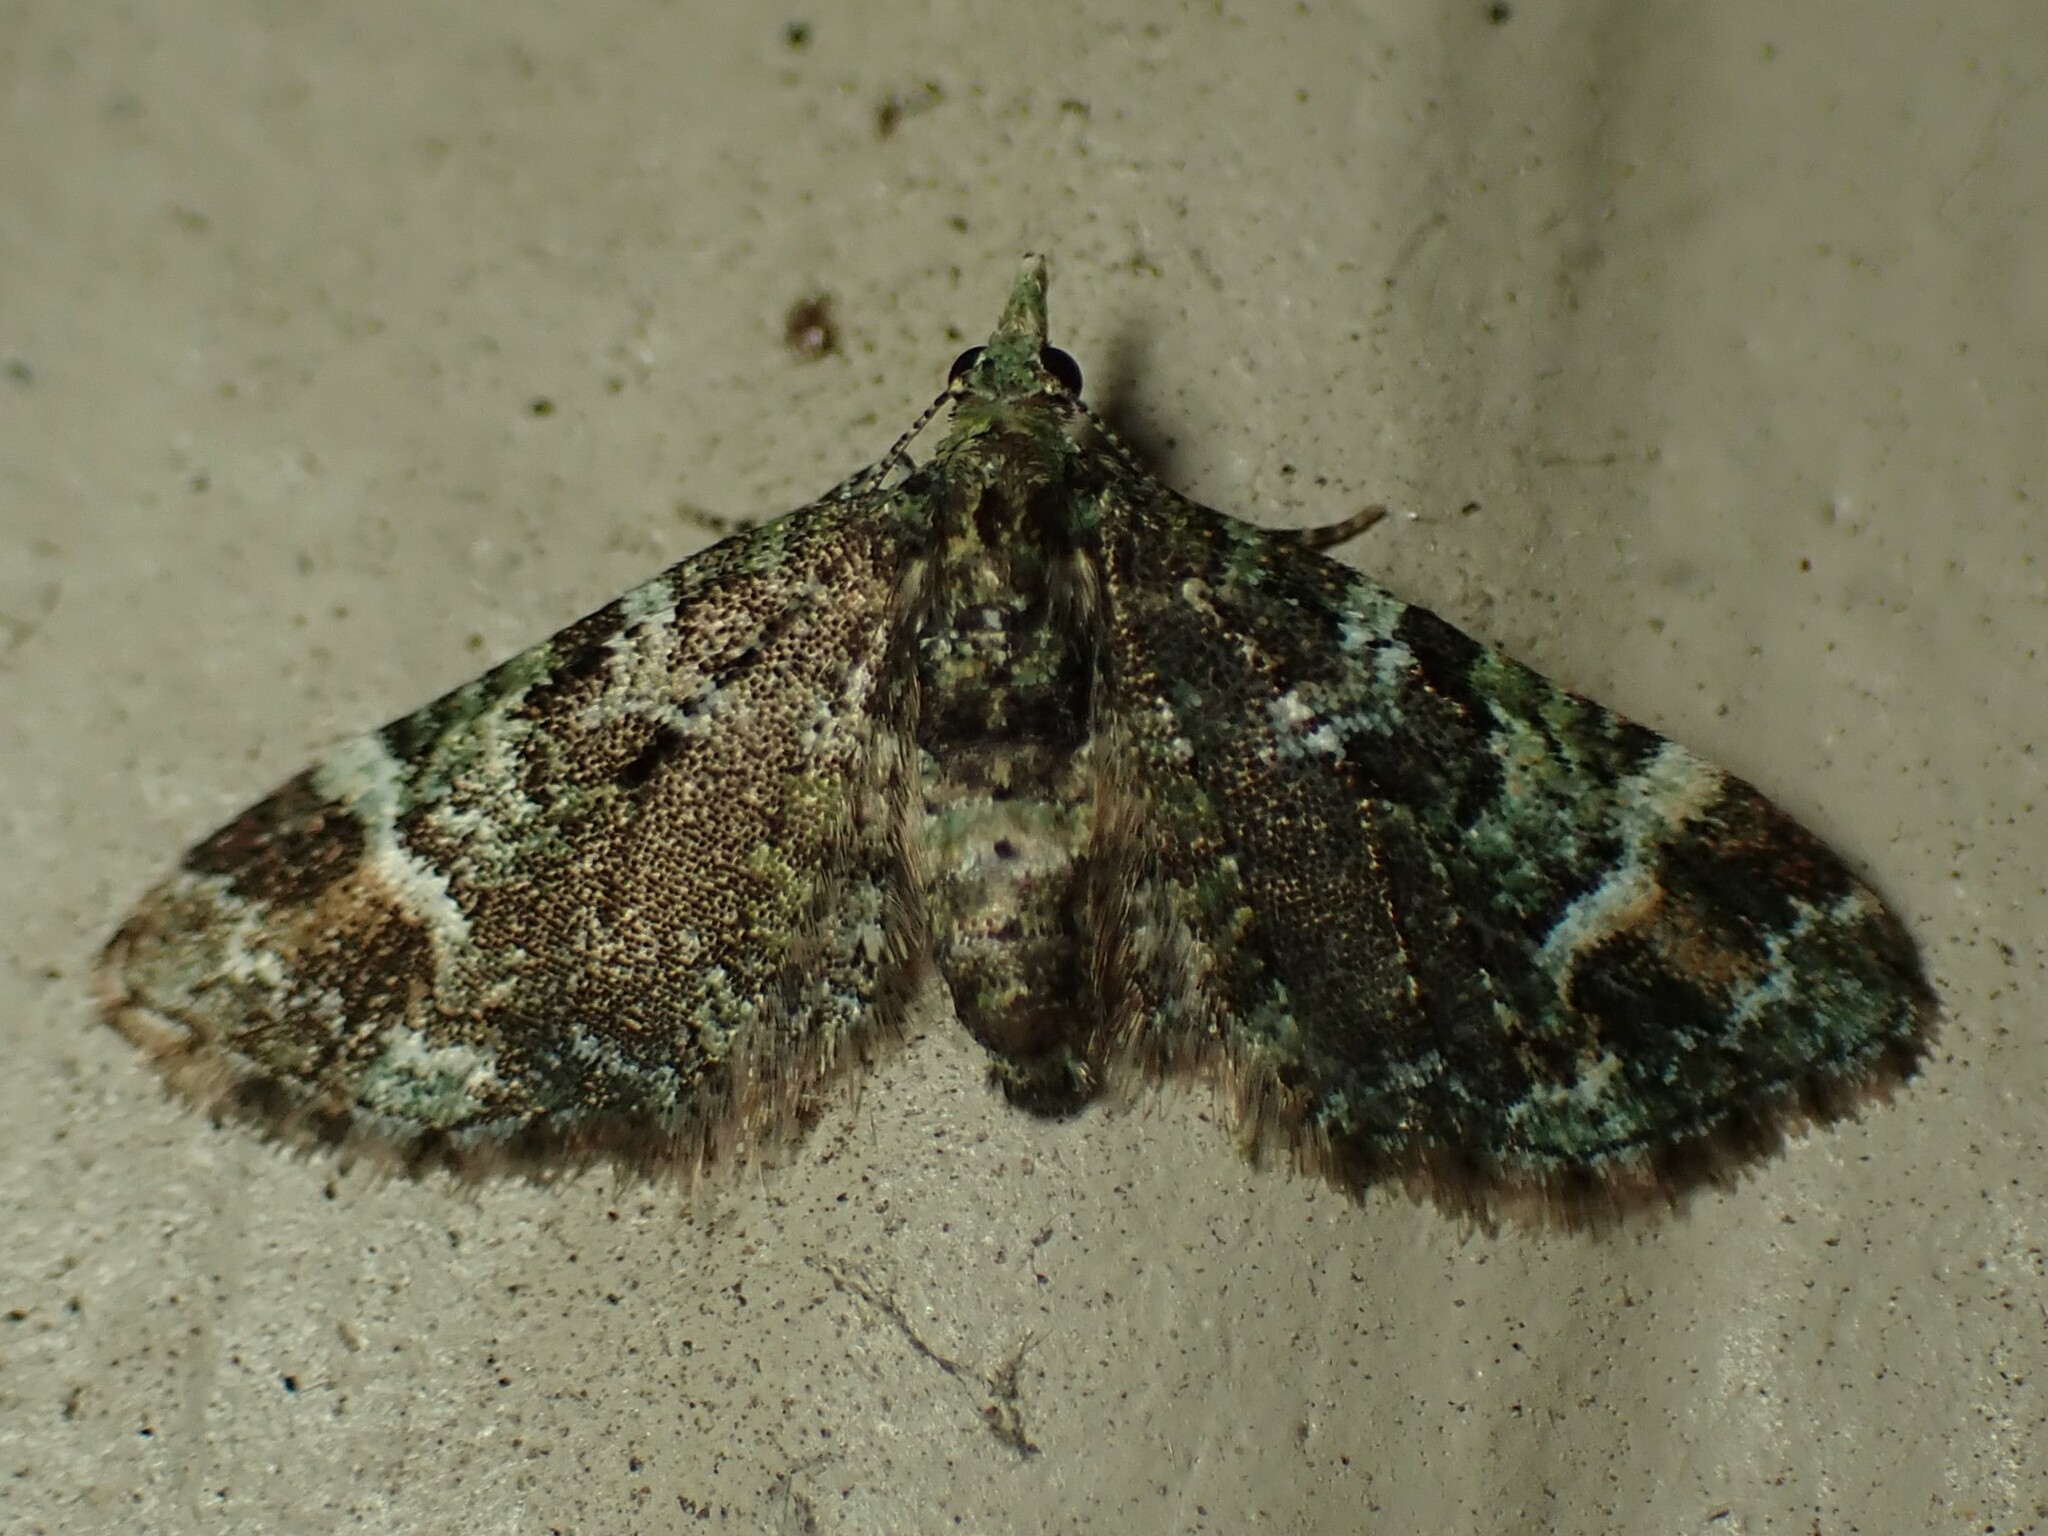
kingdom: Animalia
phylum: Arthropoda
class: Insecta
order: Lepidoptera
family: Geometridae
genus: Pasiphila
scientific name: Pasiphila sandycias
